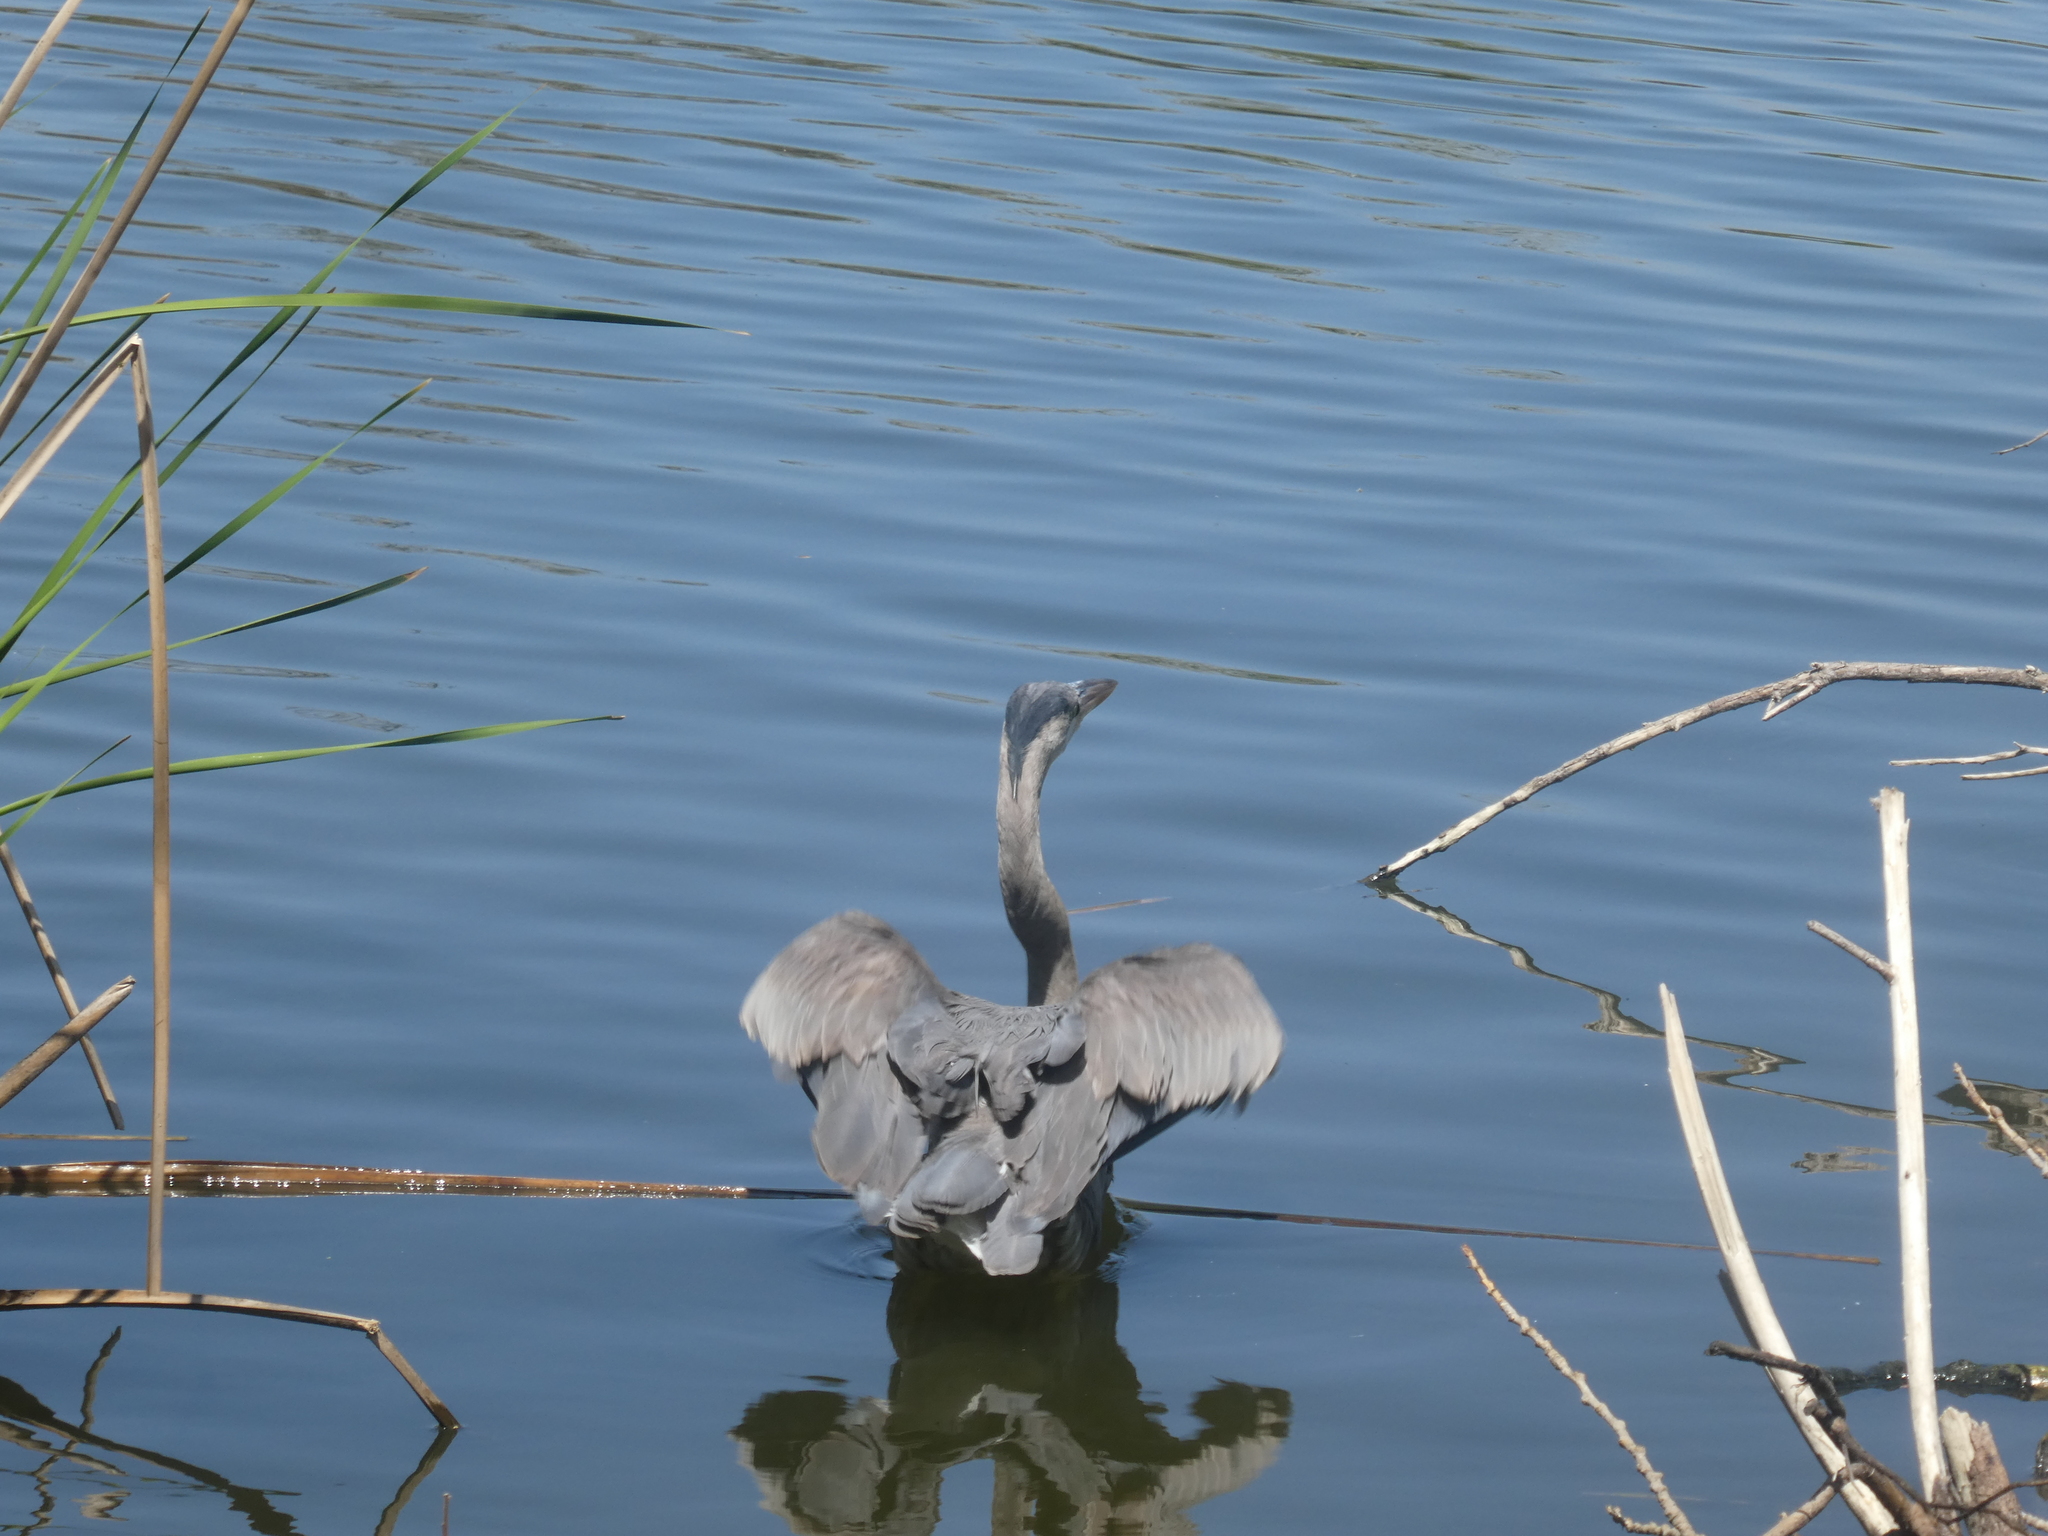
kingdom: Animalia
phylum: Chordata
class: Aves
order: Pelecaniformes
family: Ardeidae
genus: Ardea
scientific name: Ardea herodias
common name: Great blue heron
